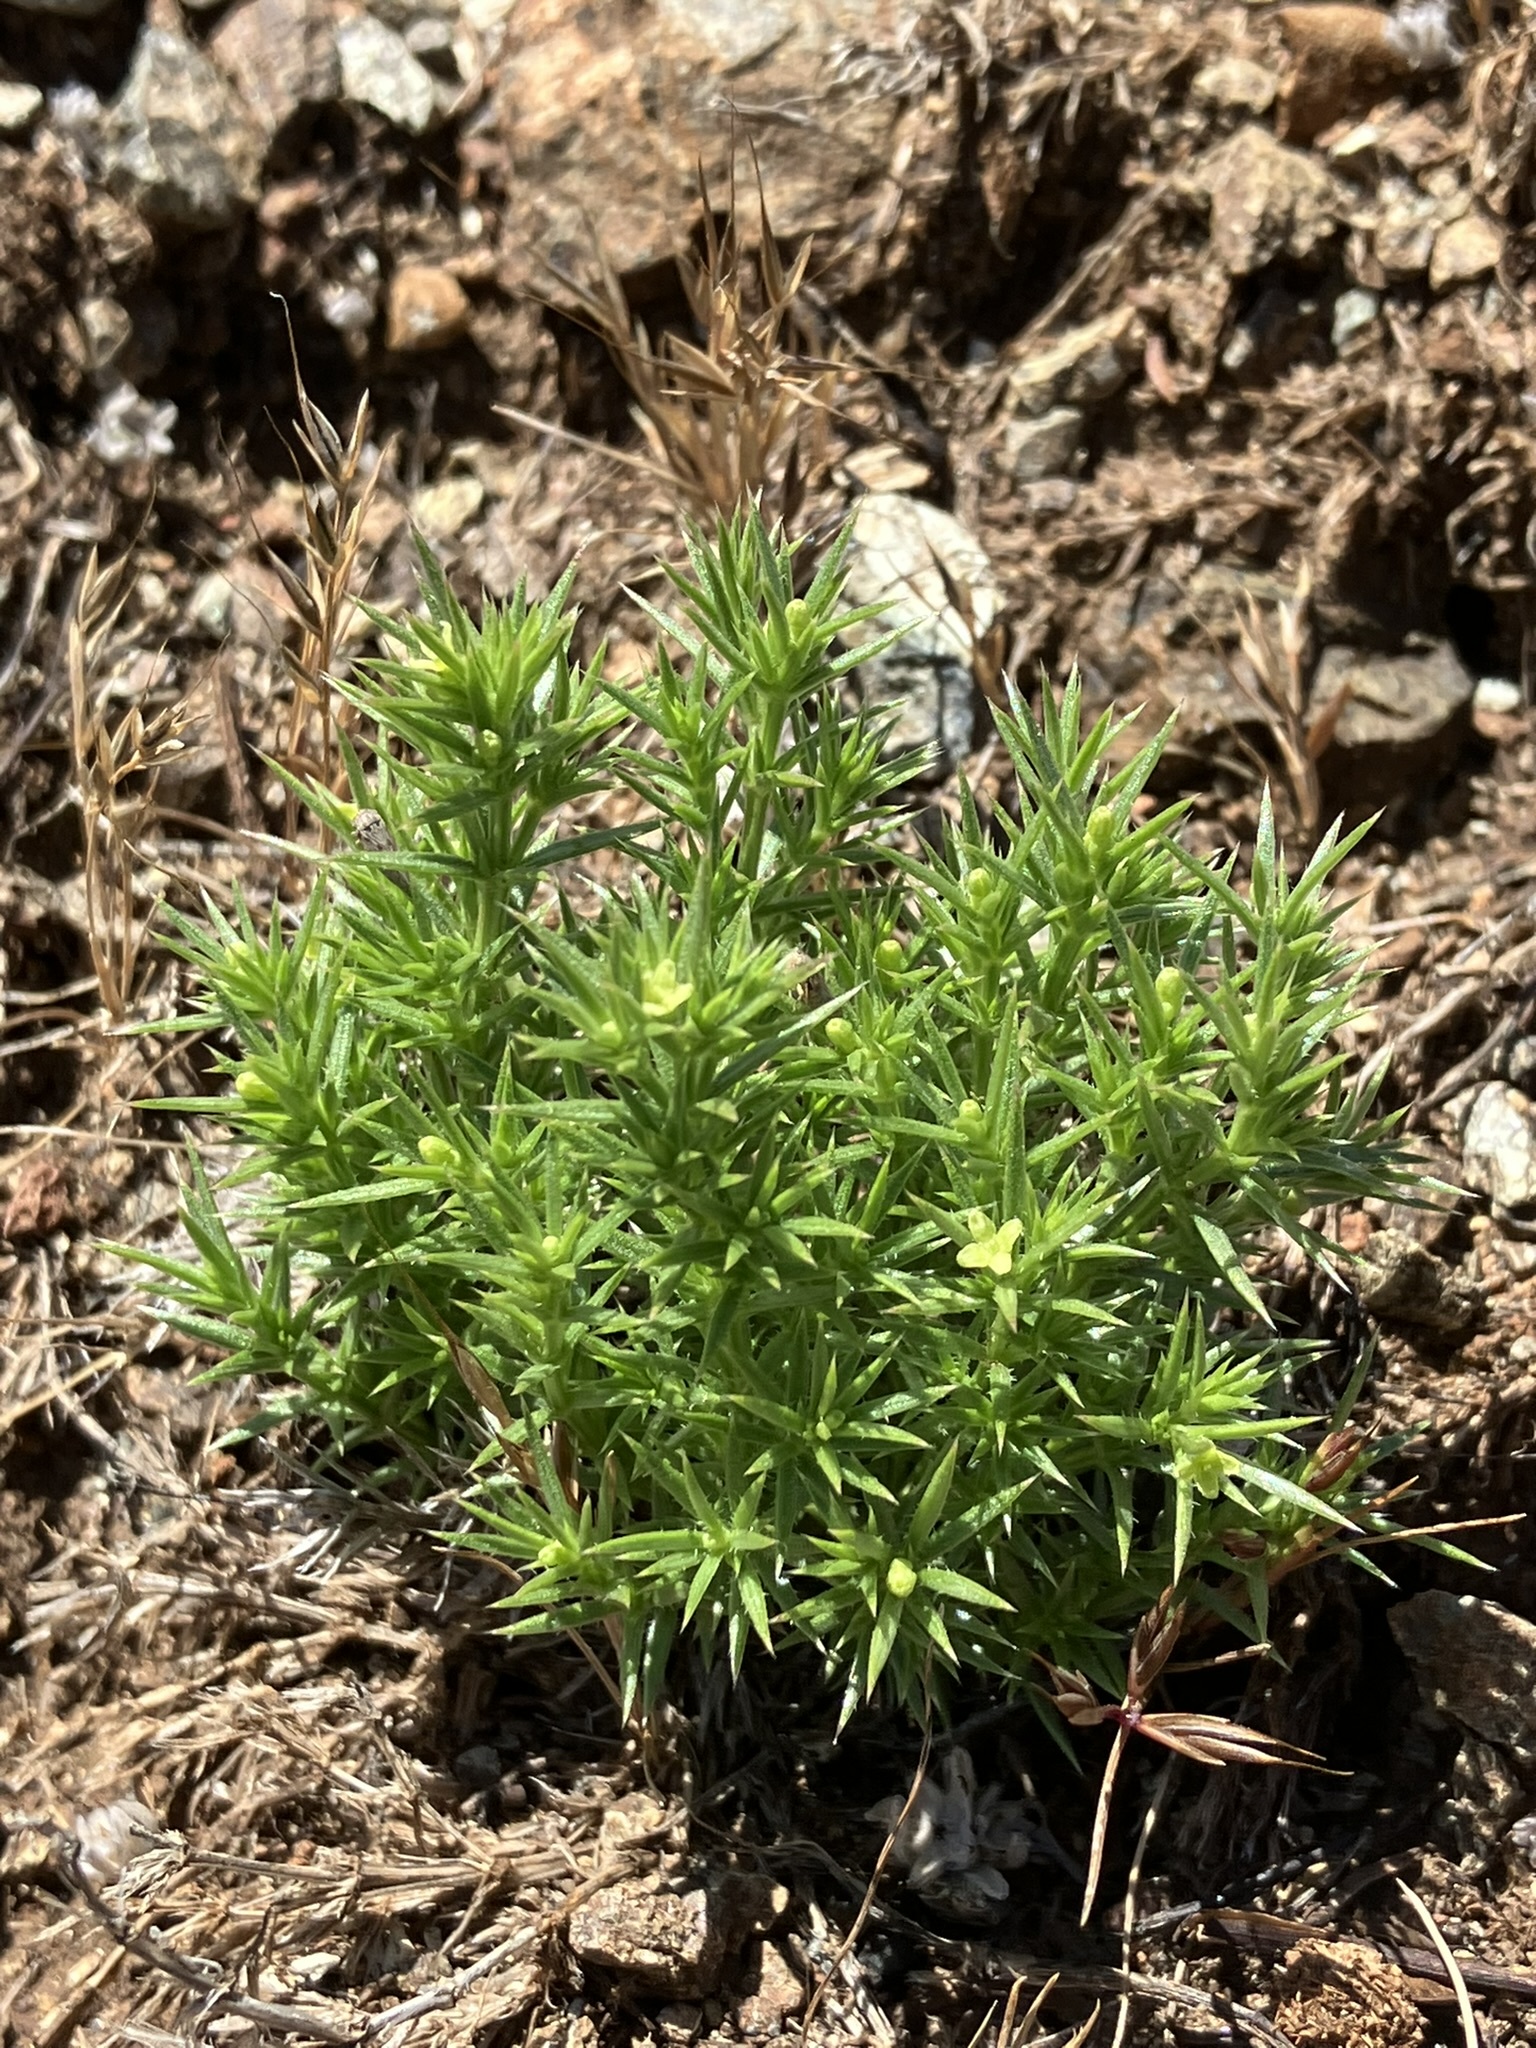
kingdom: Plantae
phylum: Tracheophyta
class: Magnoliopsida
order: Gentianales
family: Rubiaceae
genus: Galium
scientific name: Galium andrewsii
